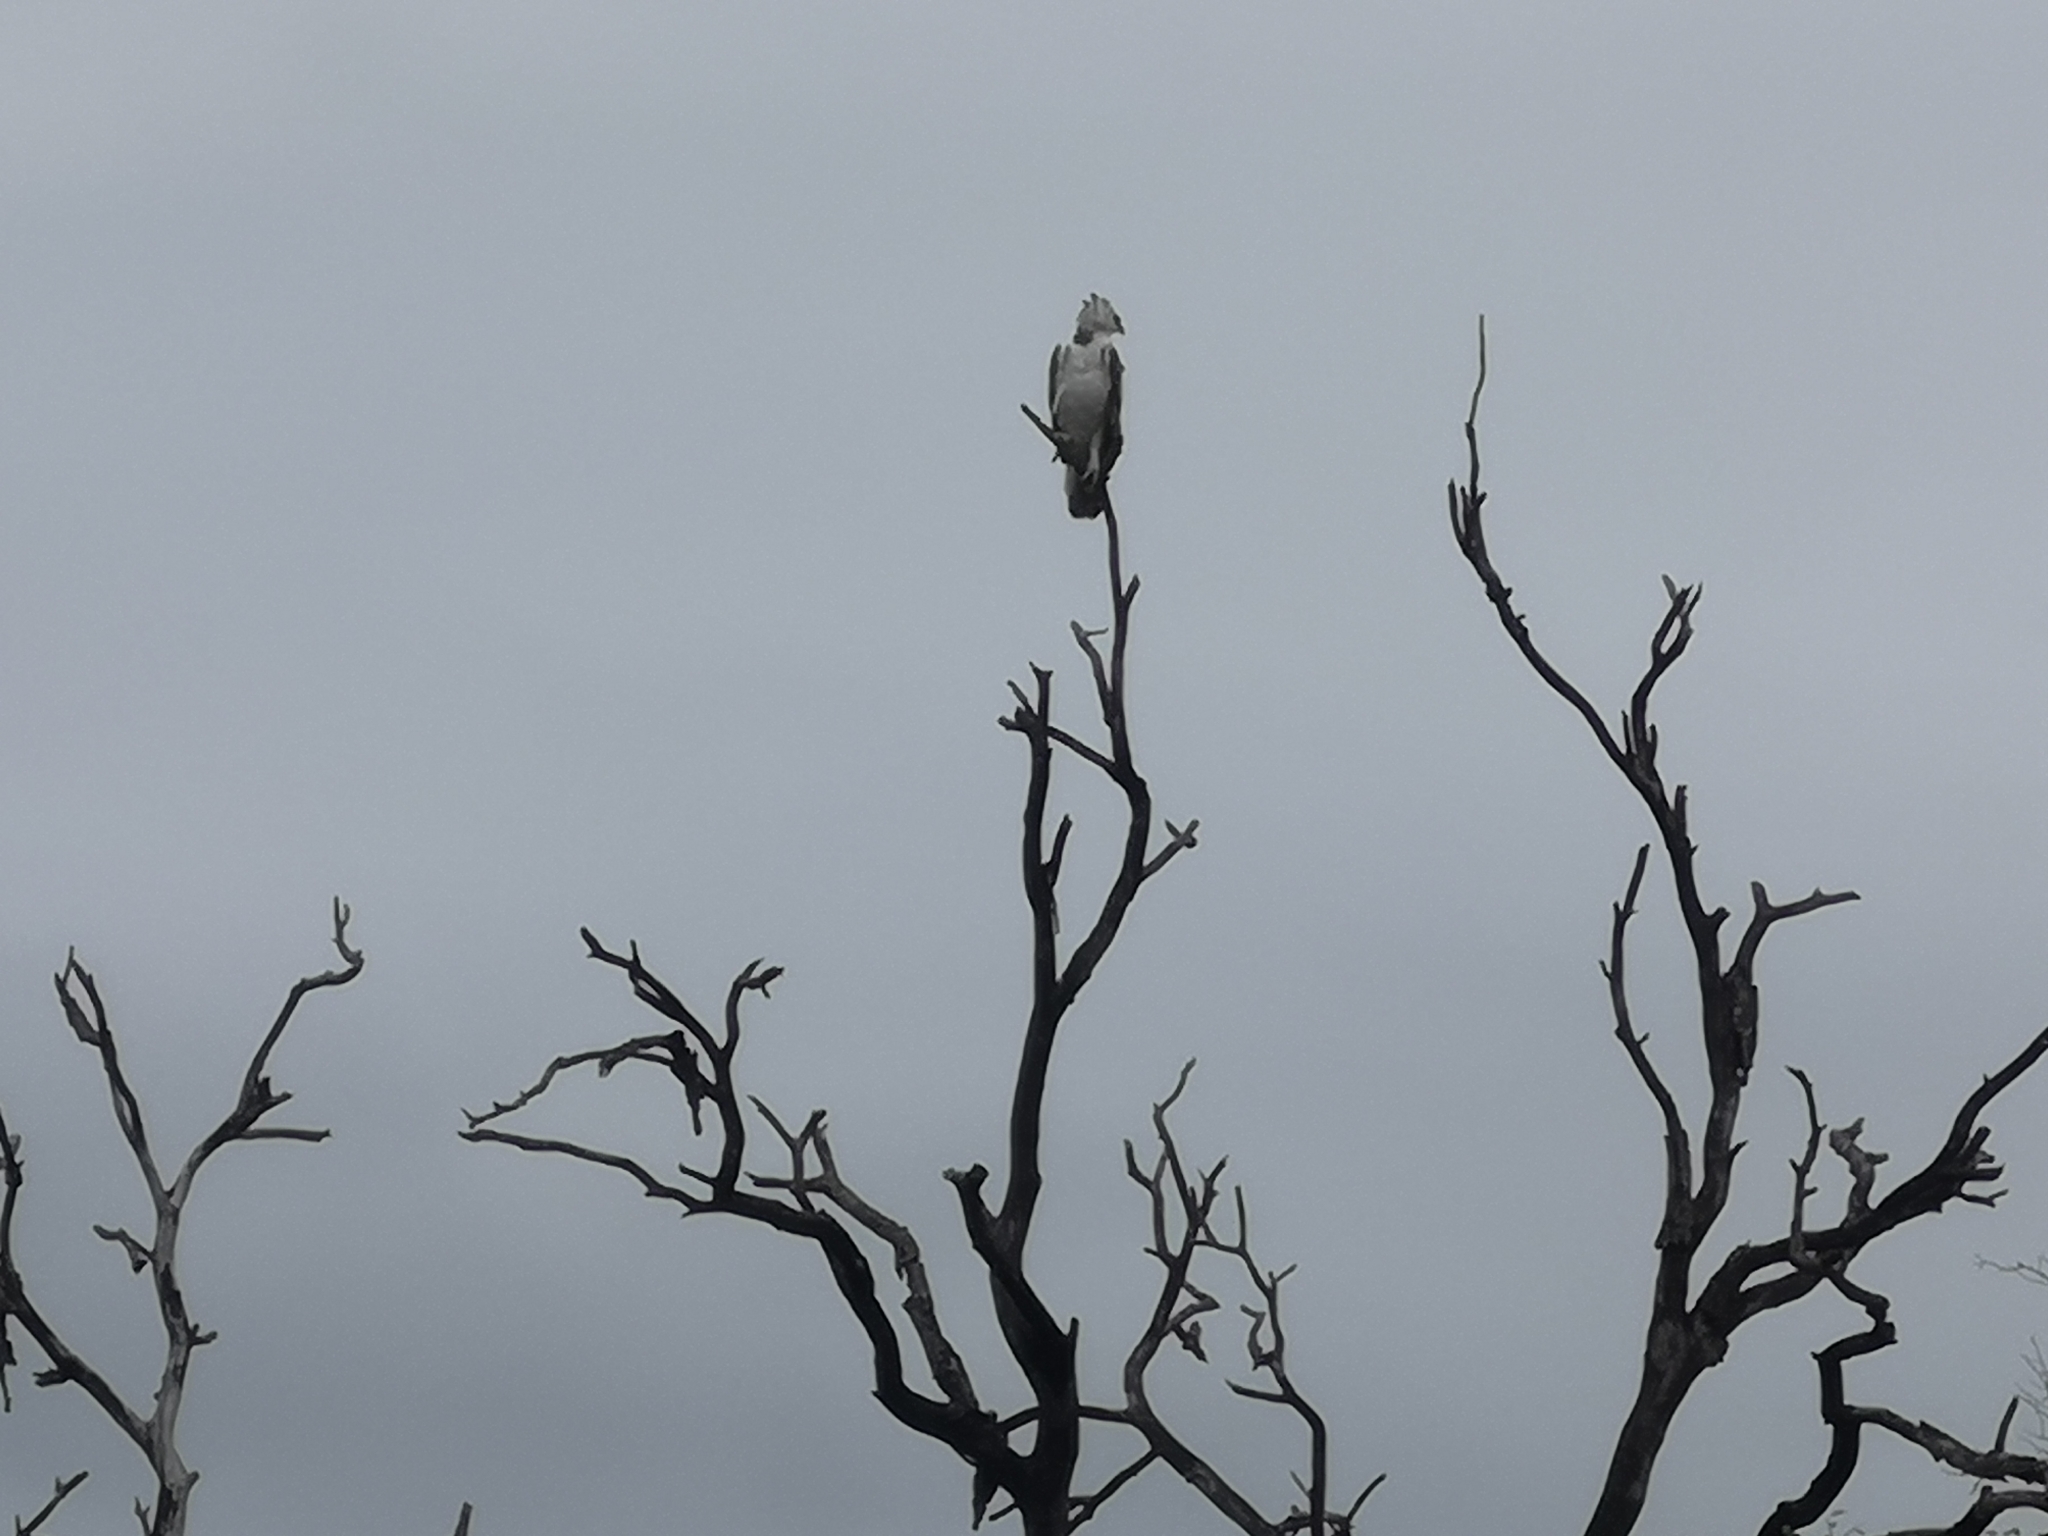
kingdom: Animalia
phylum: Chordata
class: Aves
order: Accipitriformes
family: Accipitridae
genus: Polemaetus
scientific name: Polemaetus bellicosus
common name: Martial eagle
